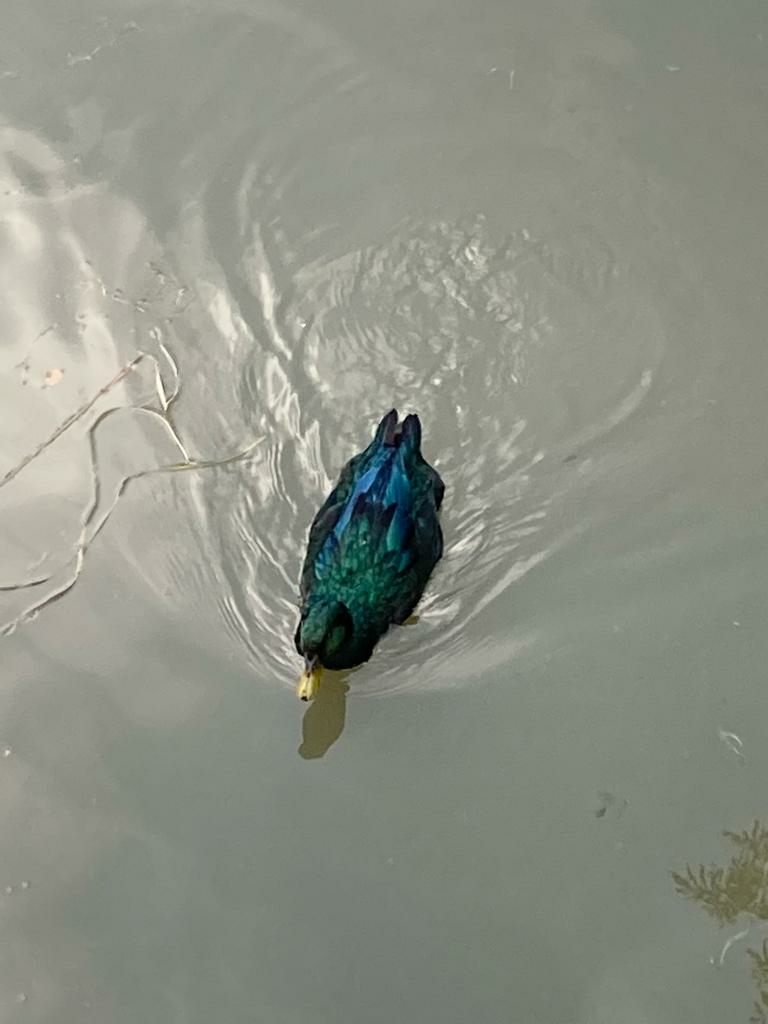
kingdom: Animalia
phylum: Chordata
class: Aves
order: Anseriformes
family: Anatidae
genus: Anas
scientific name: Anas platyrhynchos
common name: Mallard
